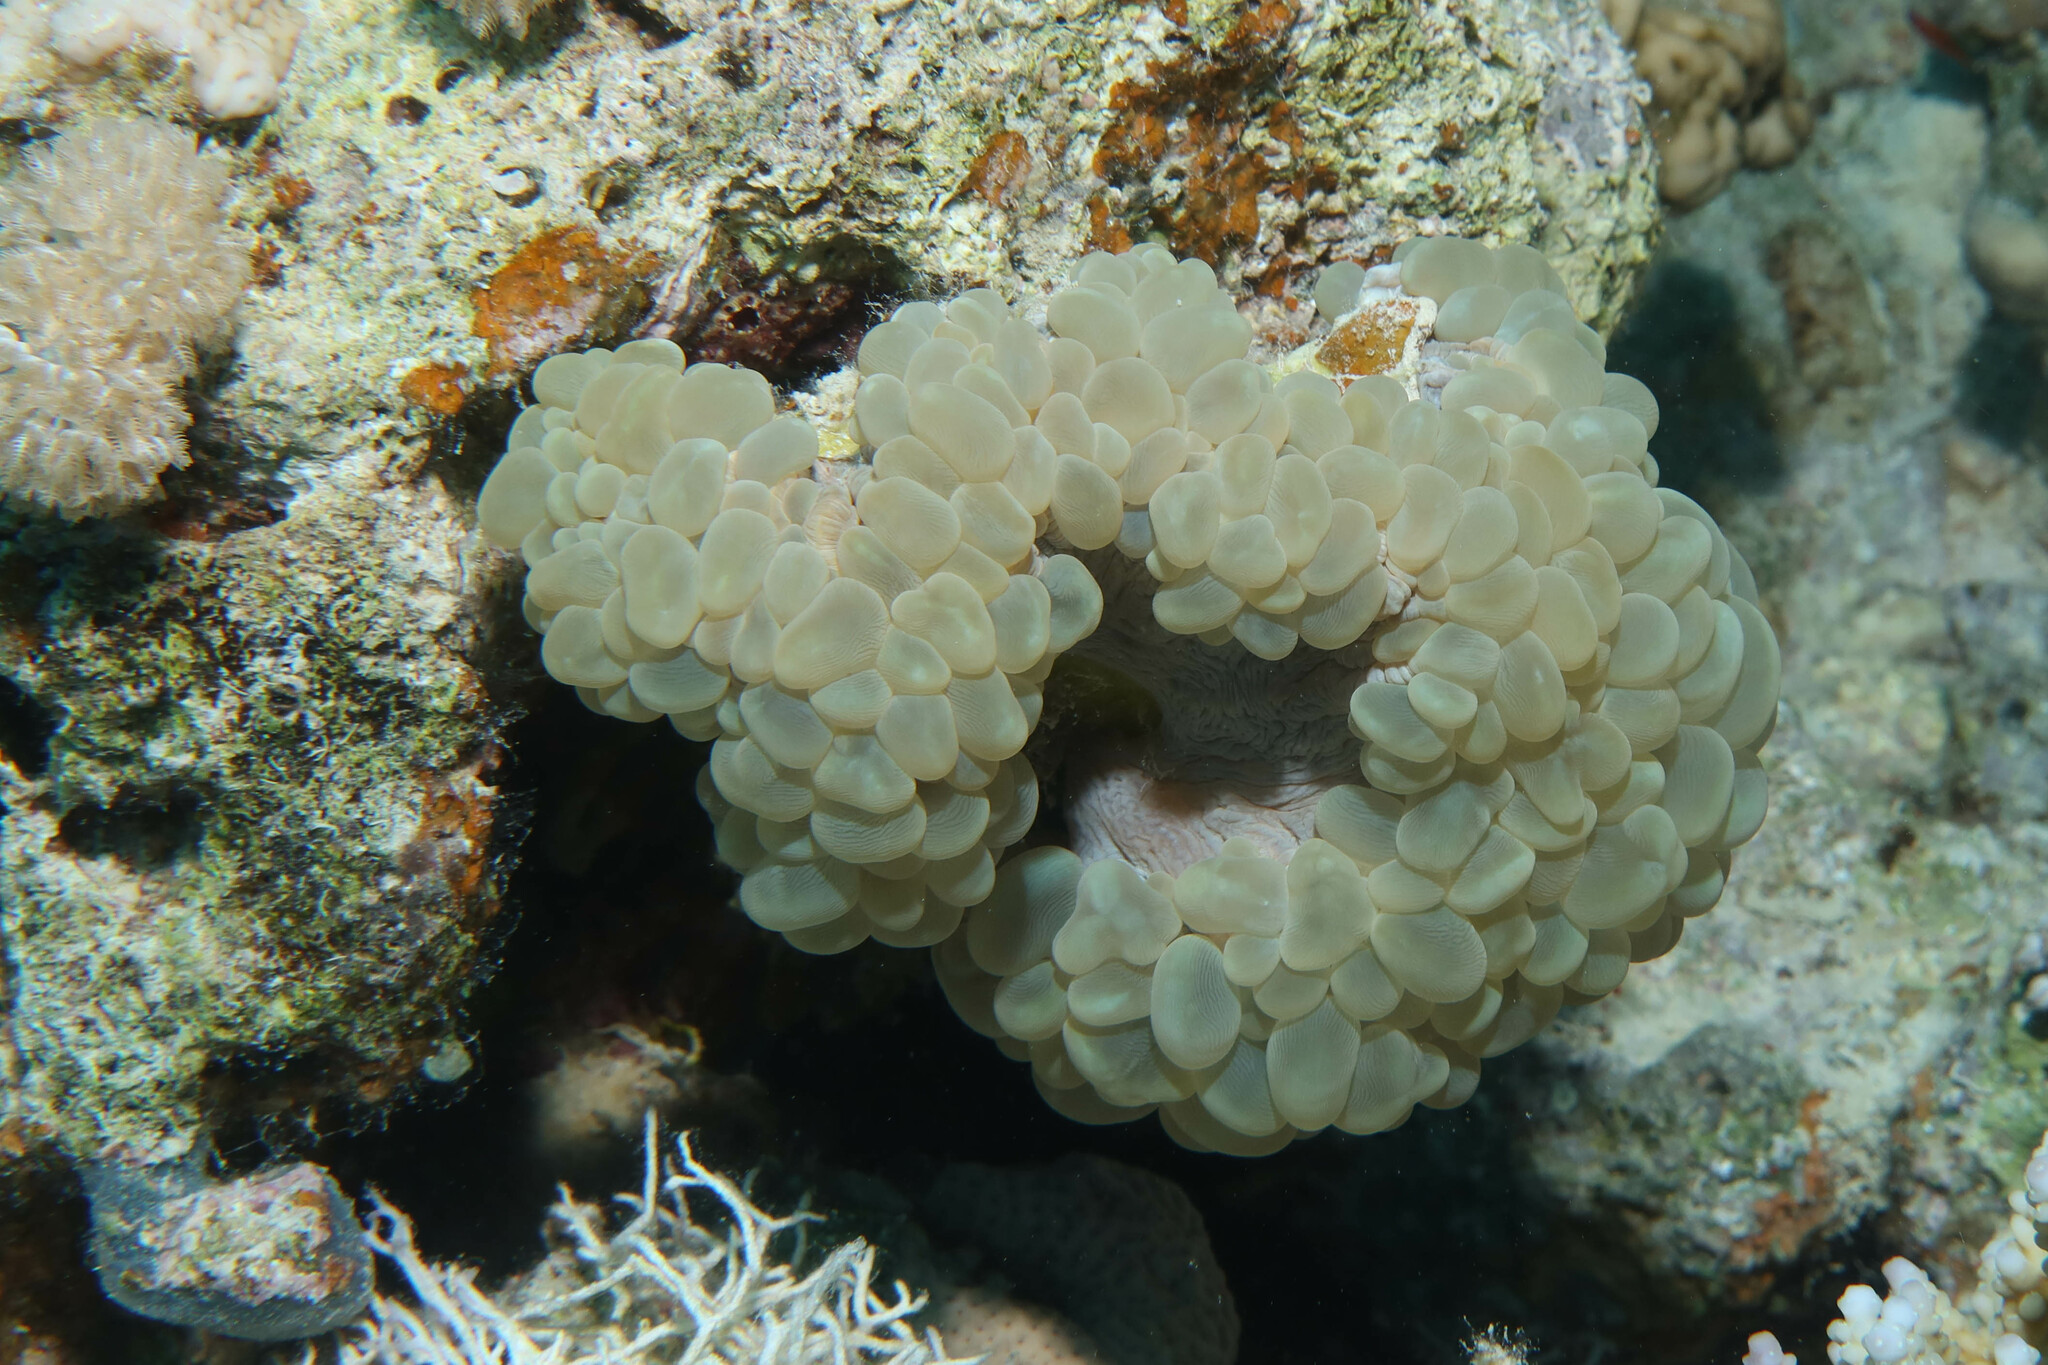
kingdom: Animalia
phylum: Cnidaria
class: Anthozoa
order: Scleractinia
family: Plerogyridae
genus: Plerogyra
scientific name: Plerogyra sinuosa
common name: Bubble coral
